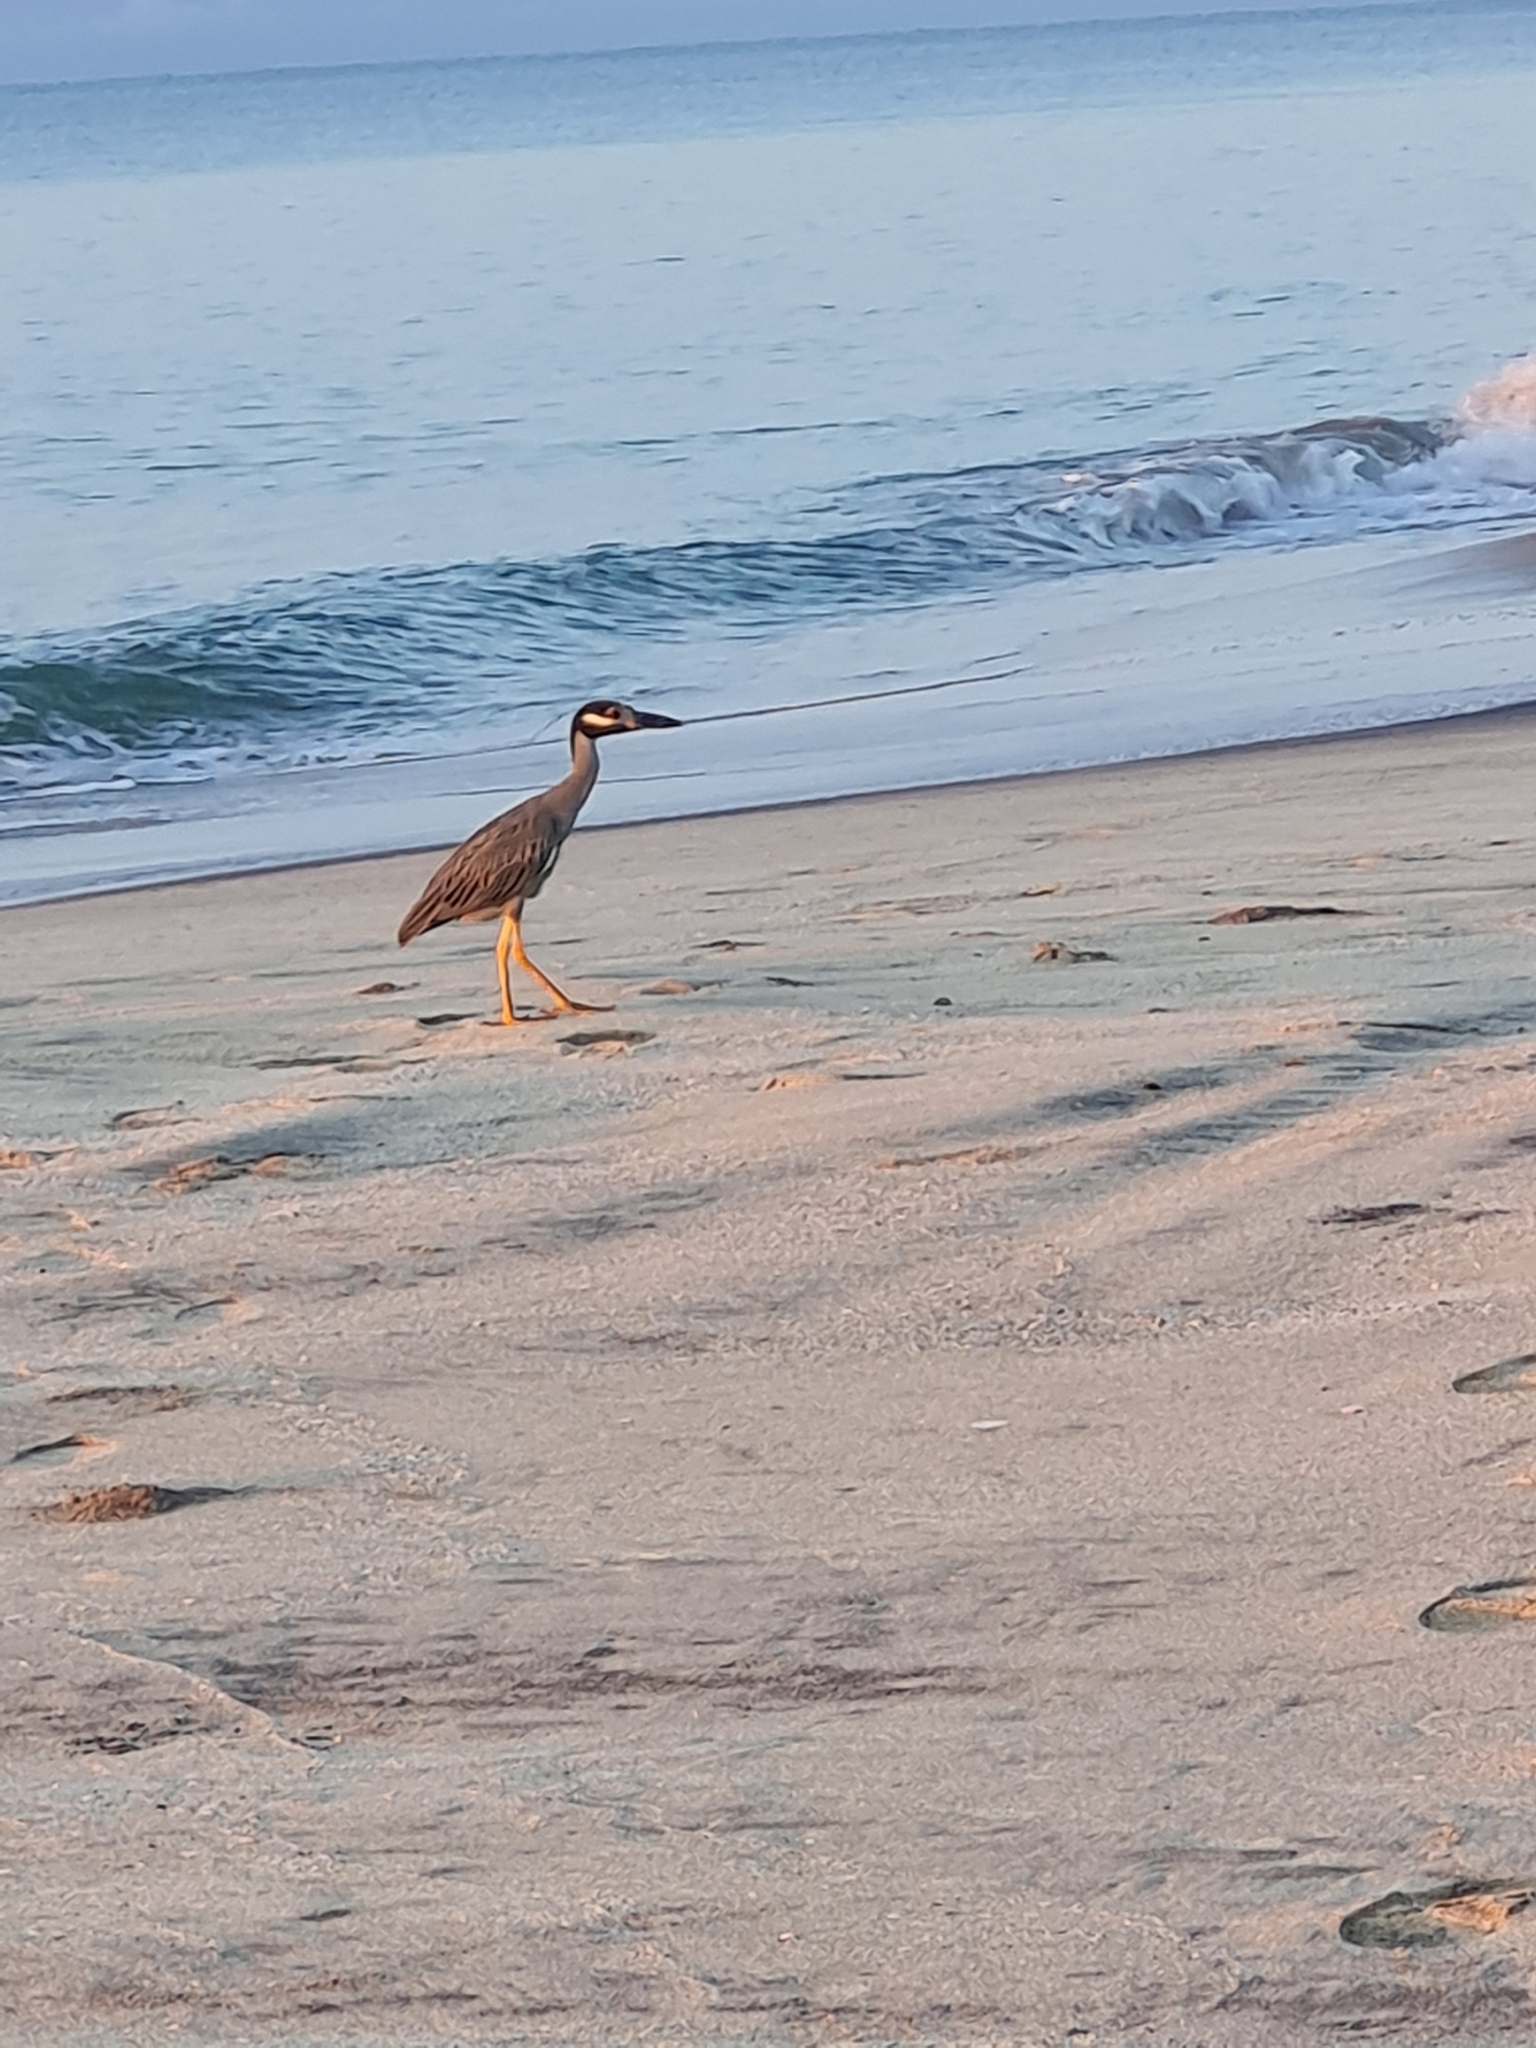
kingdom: Animalia
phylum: Chordata
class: Aves
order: Pelecaniformes
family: Ardeidae
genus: Nyctanassa
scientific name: Nyctanassa violacea
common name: Yellow-crowned night heron
